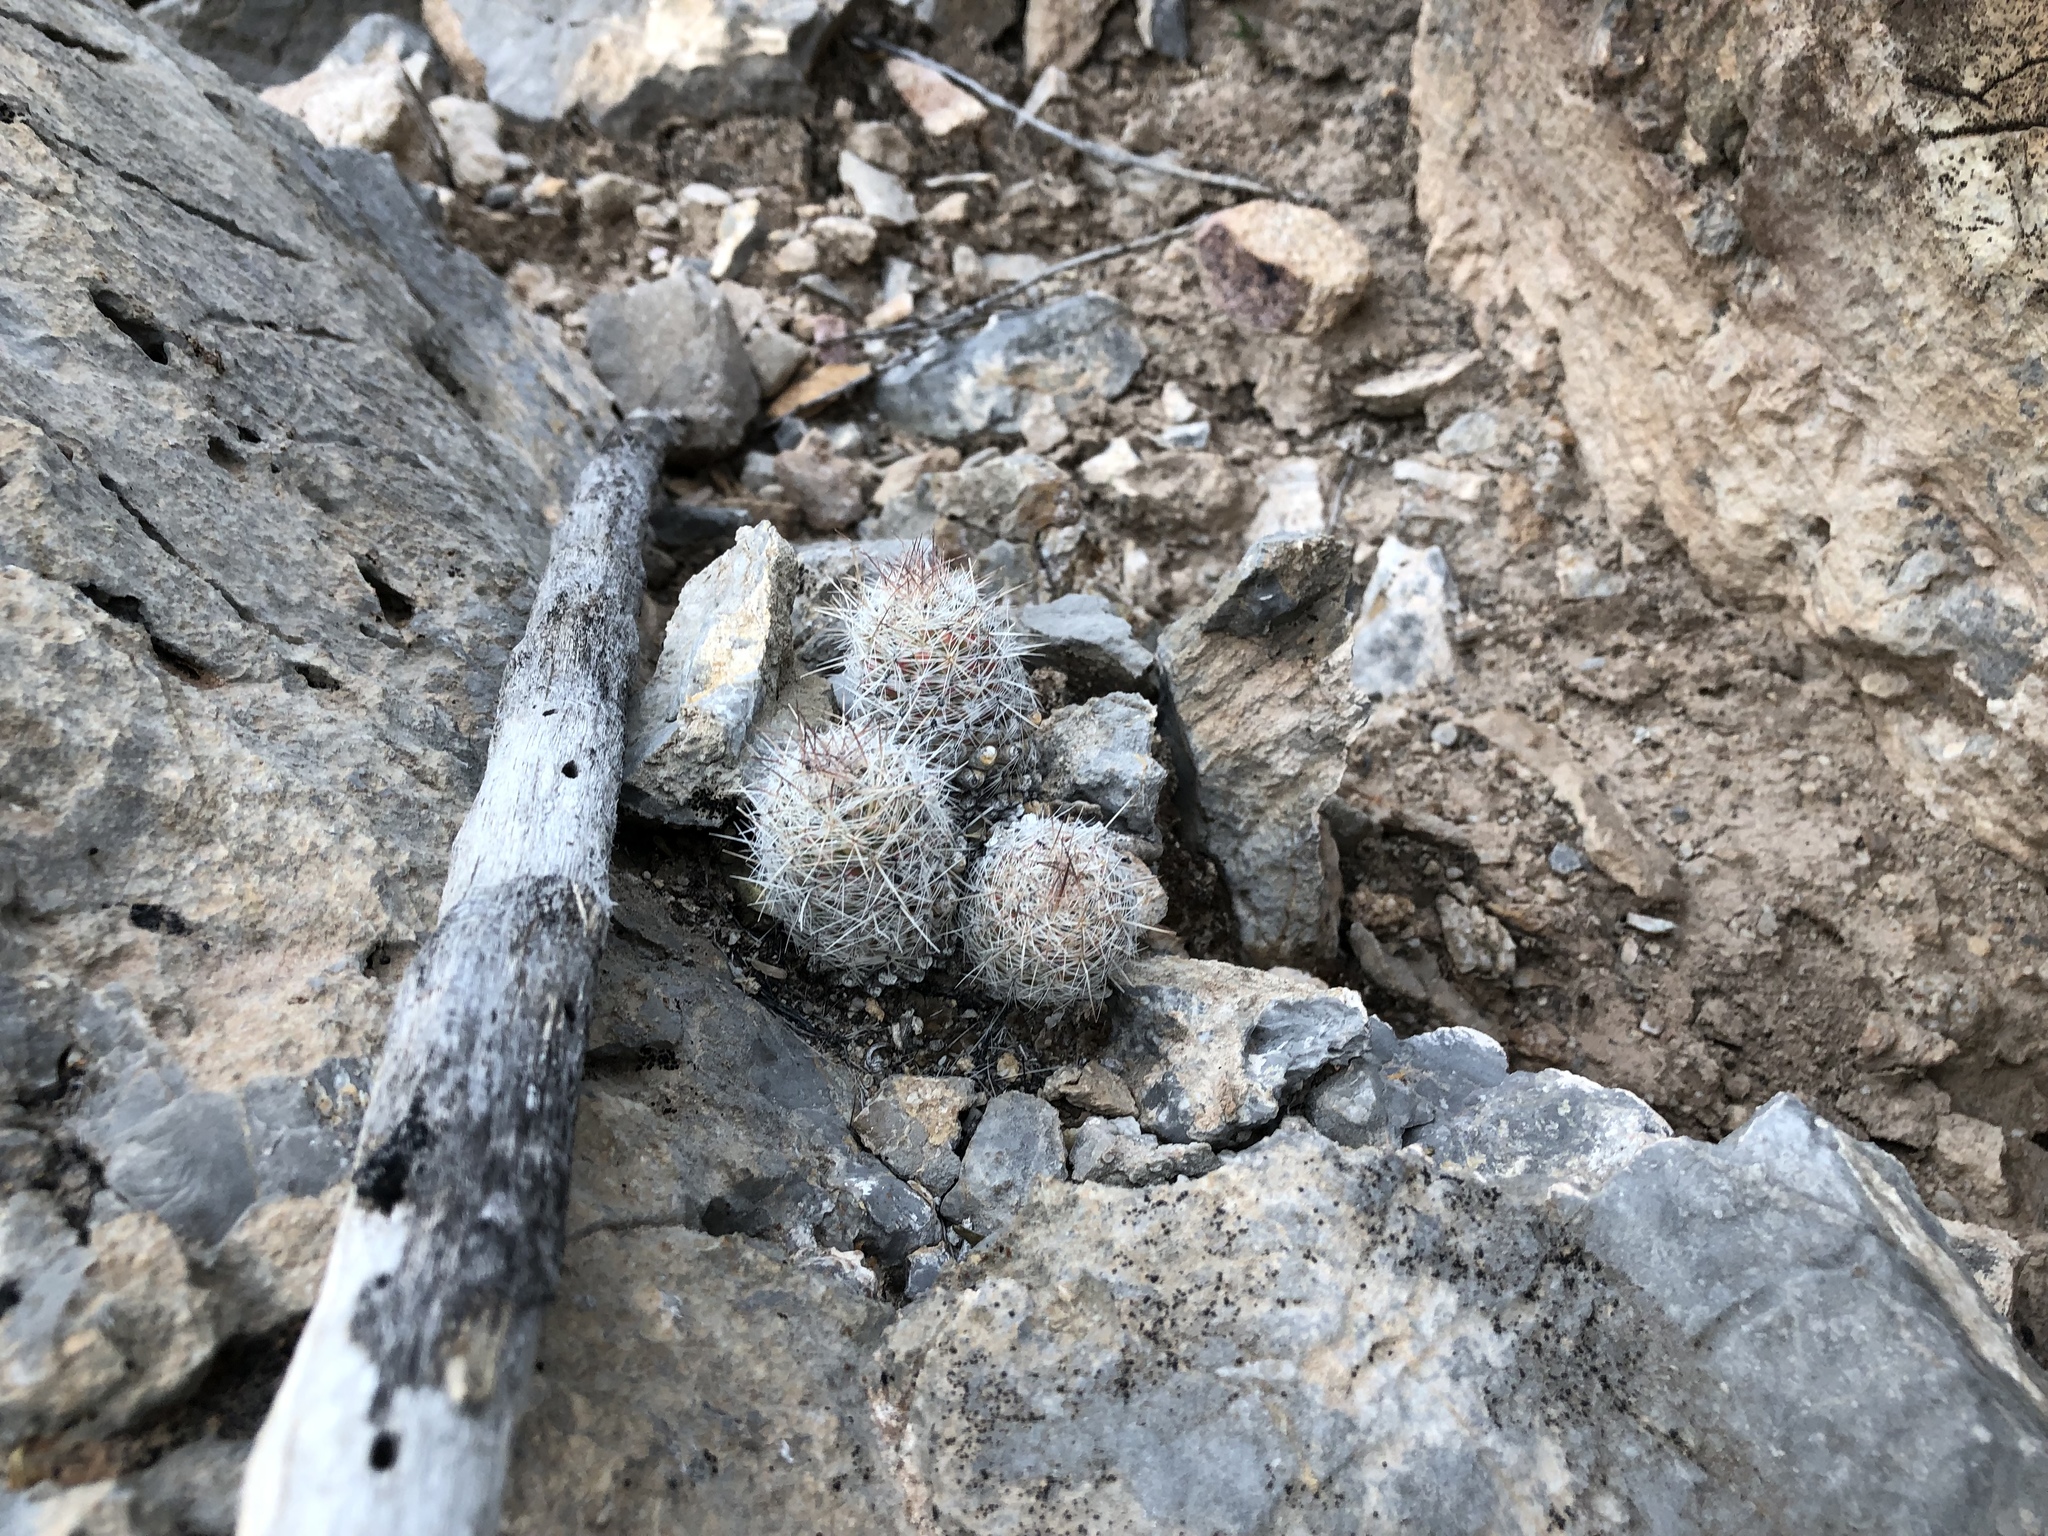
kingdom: Plantae
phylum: Tracheophyta
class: Magnoliopsida
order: Caryophyllales
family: Cactaceae
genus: Pelecyphora
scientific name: Pelecyphora tuberculosa
